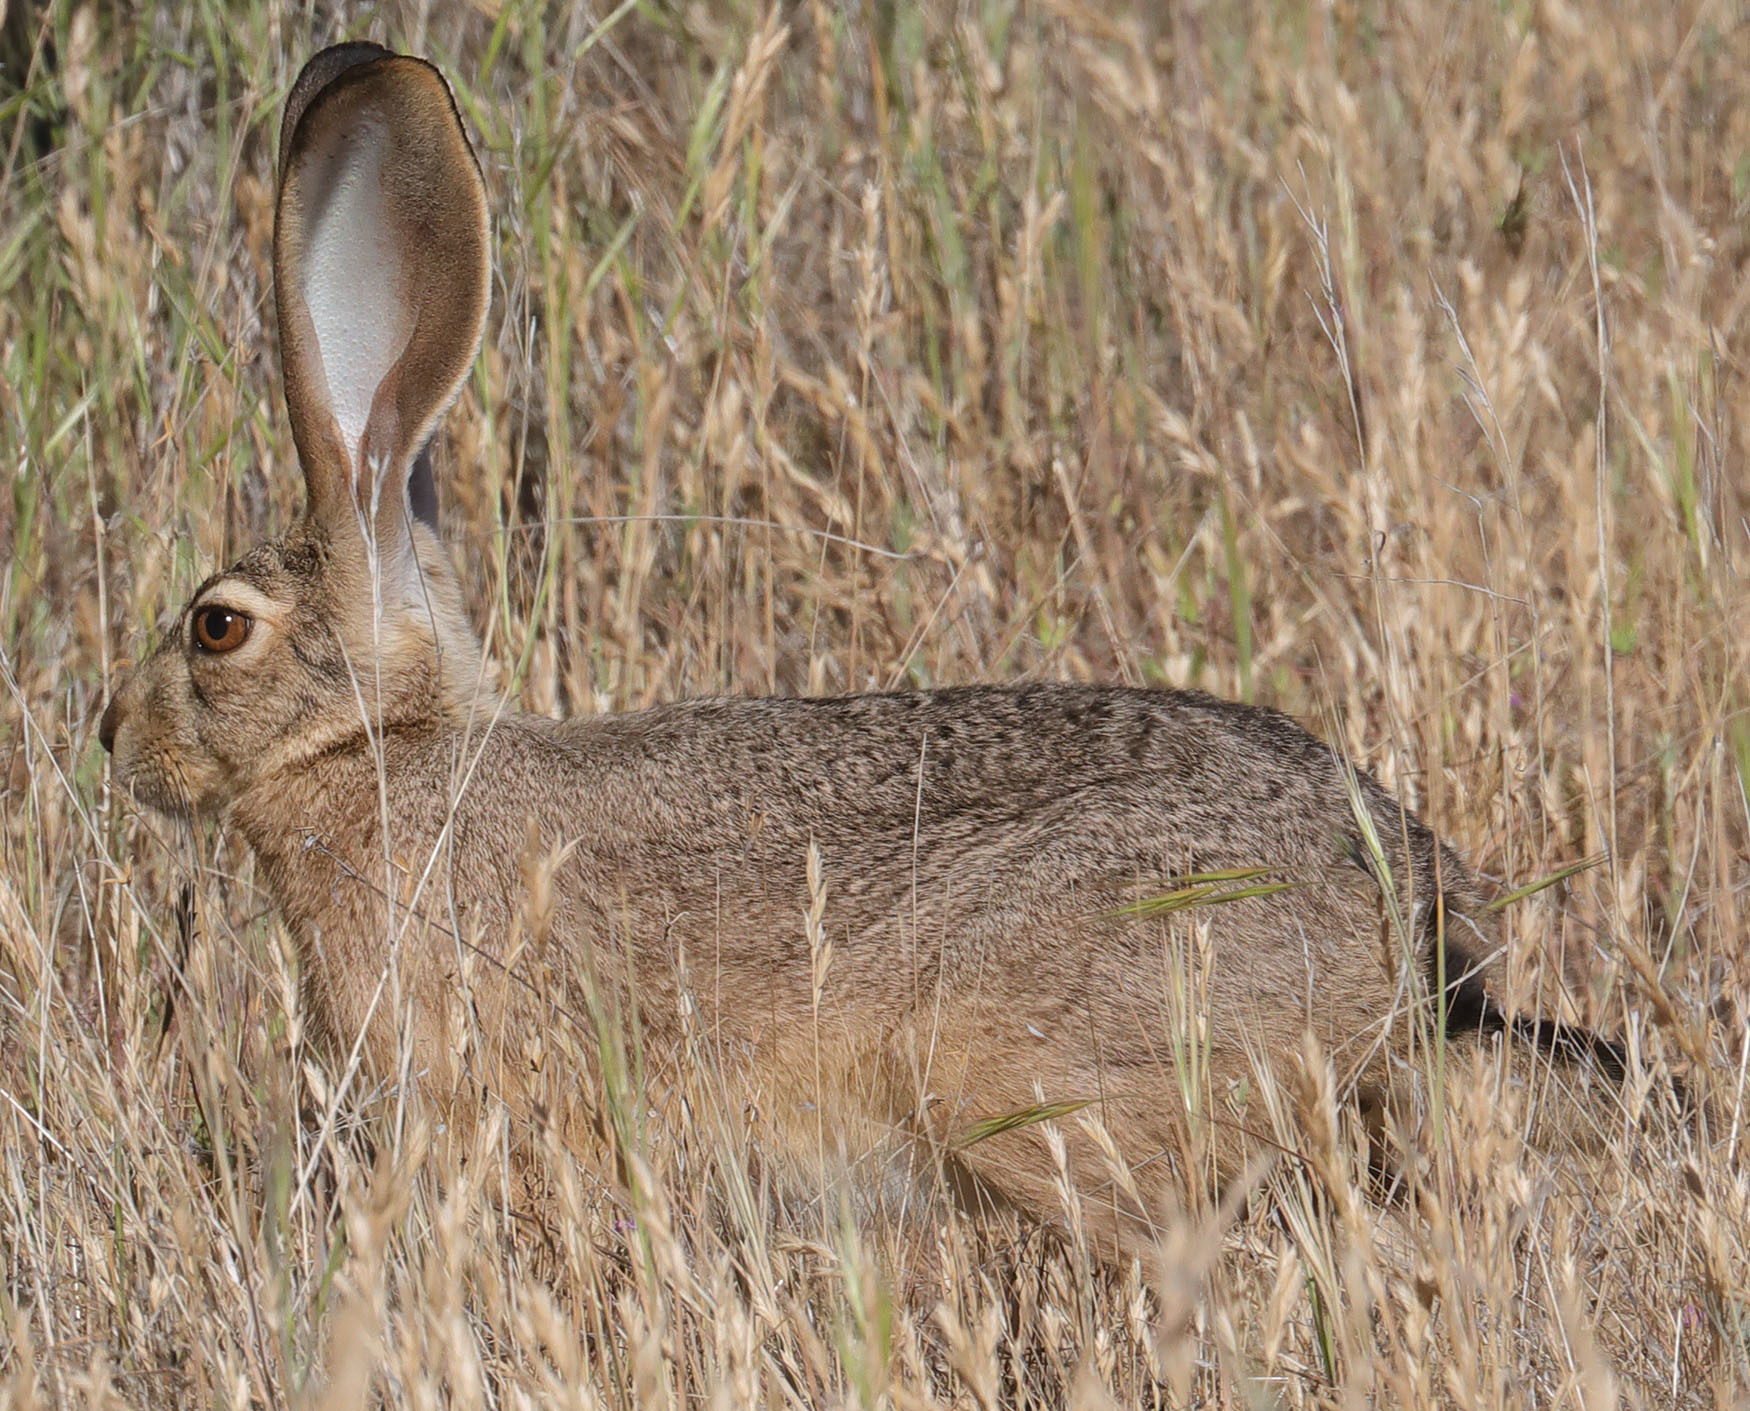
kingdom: Animalia
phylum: Chordata
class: Mammalia
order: Lagomorpha
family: Leporidae
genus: Lepus
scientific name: Lepus californicus
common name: Black-tailed jackrabbit
